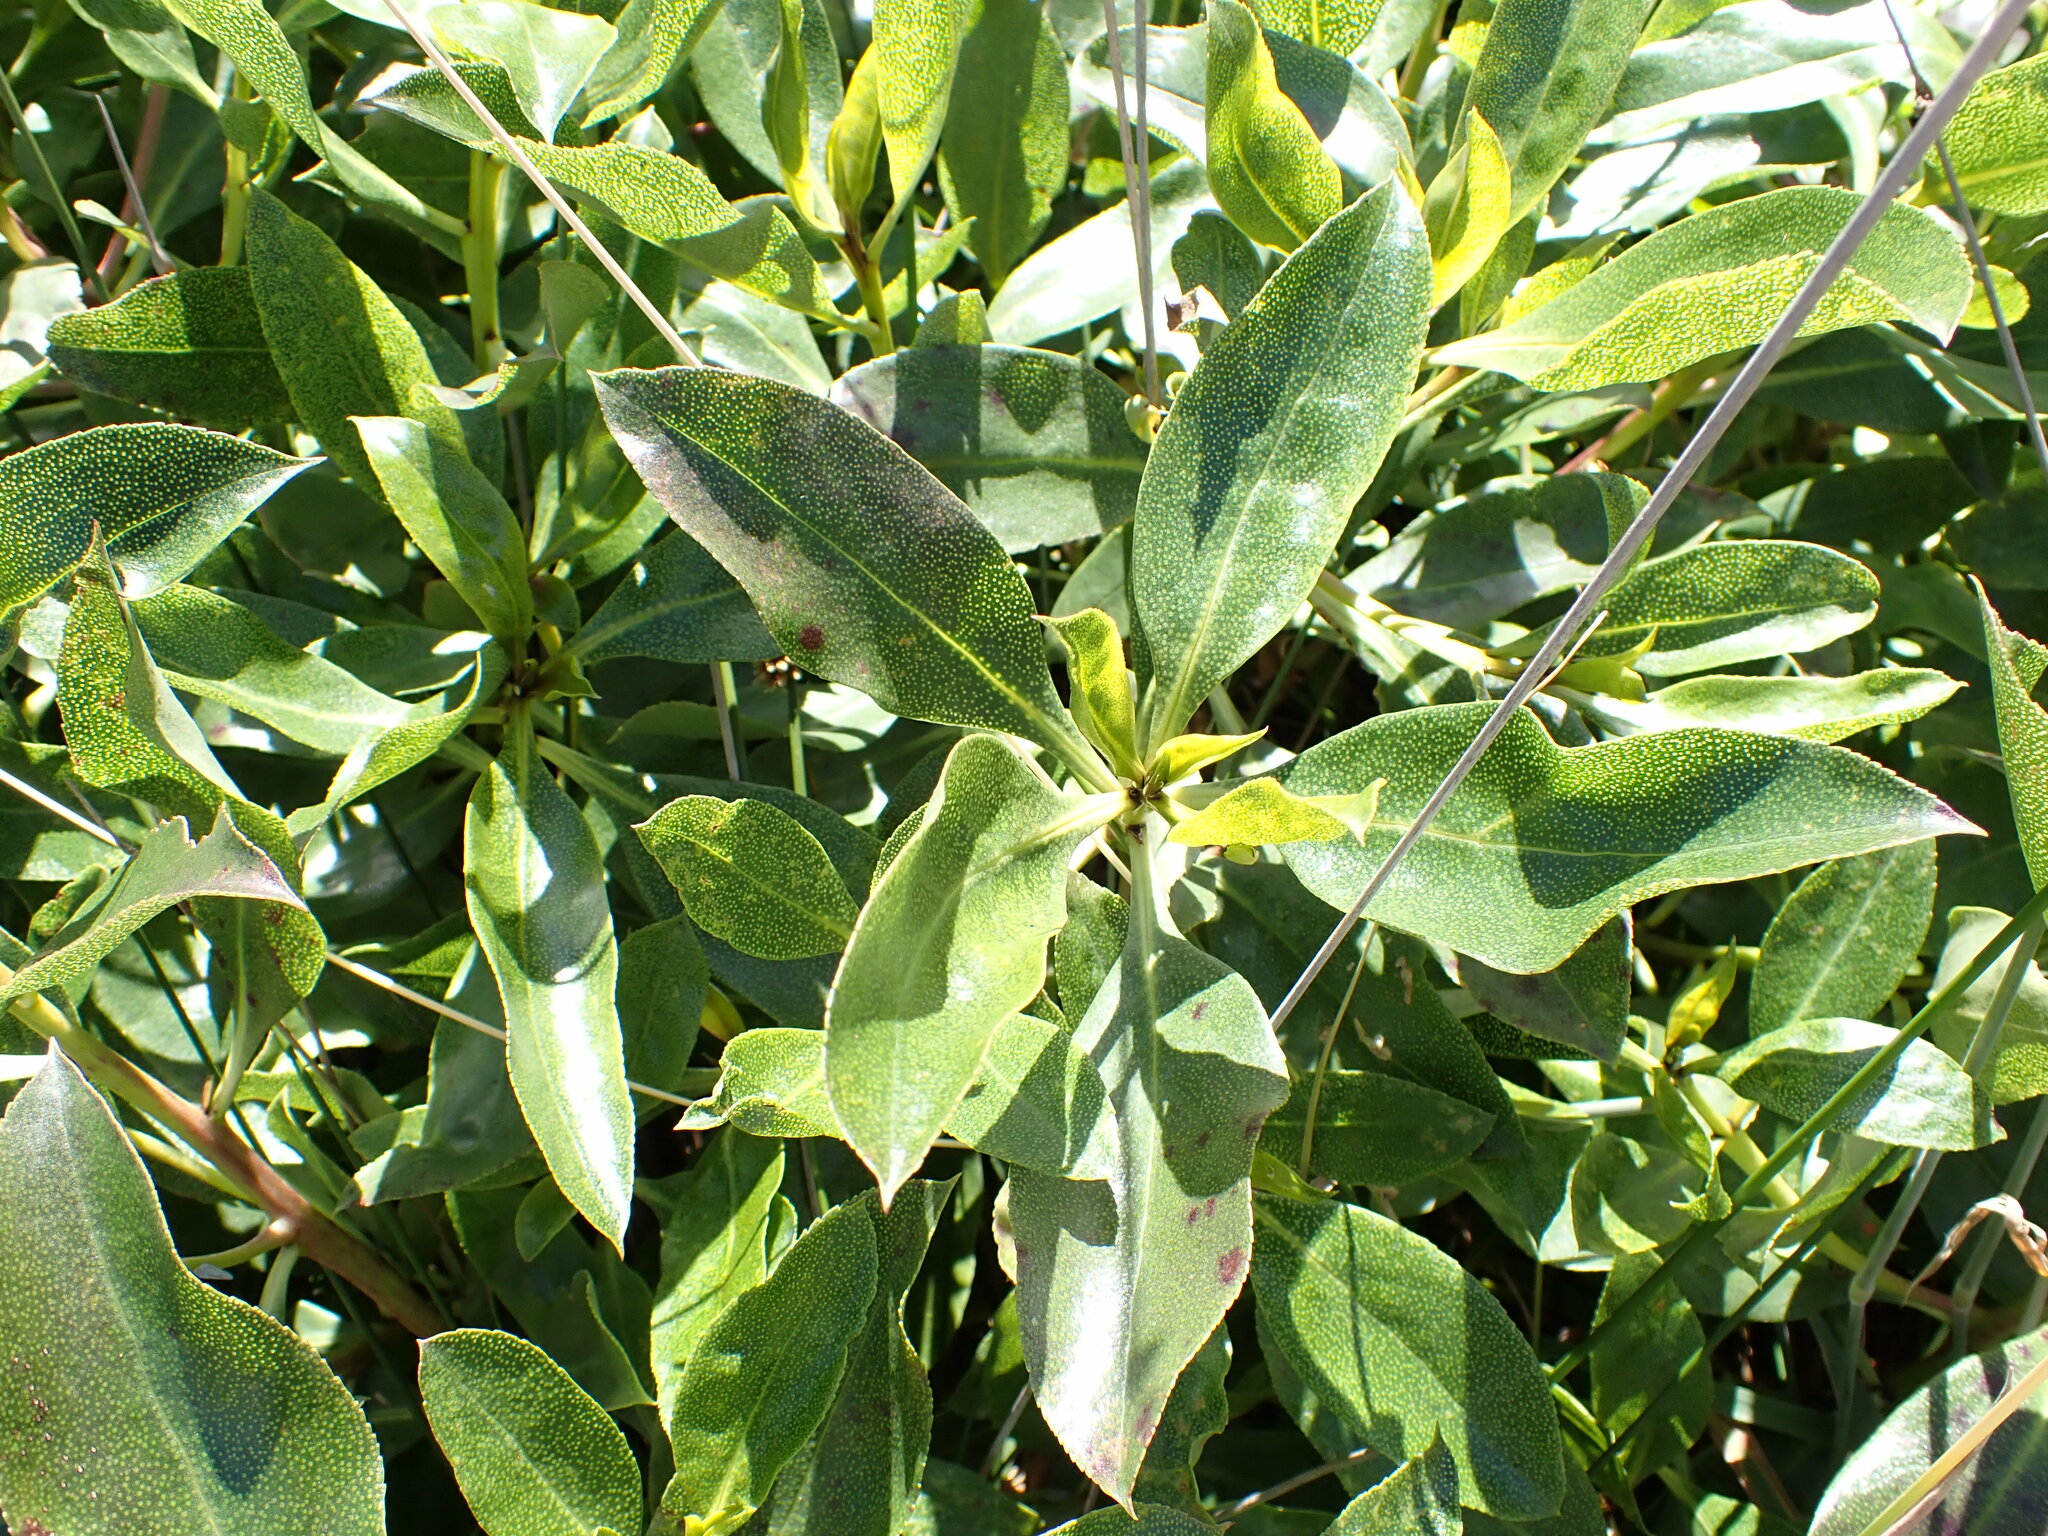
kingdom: Plantae
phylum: Tracheophyta
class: Magnoliopsida
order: Lamiales
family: Scrophulariaceae
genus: Myoporum
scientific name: Myoporum laetum
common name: Ngaio tree
